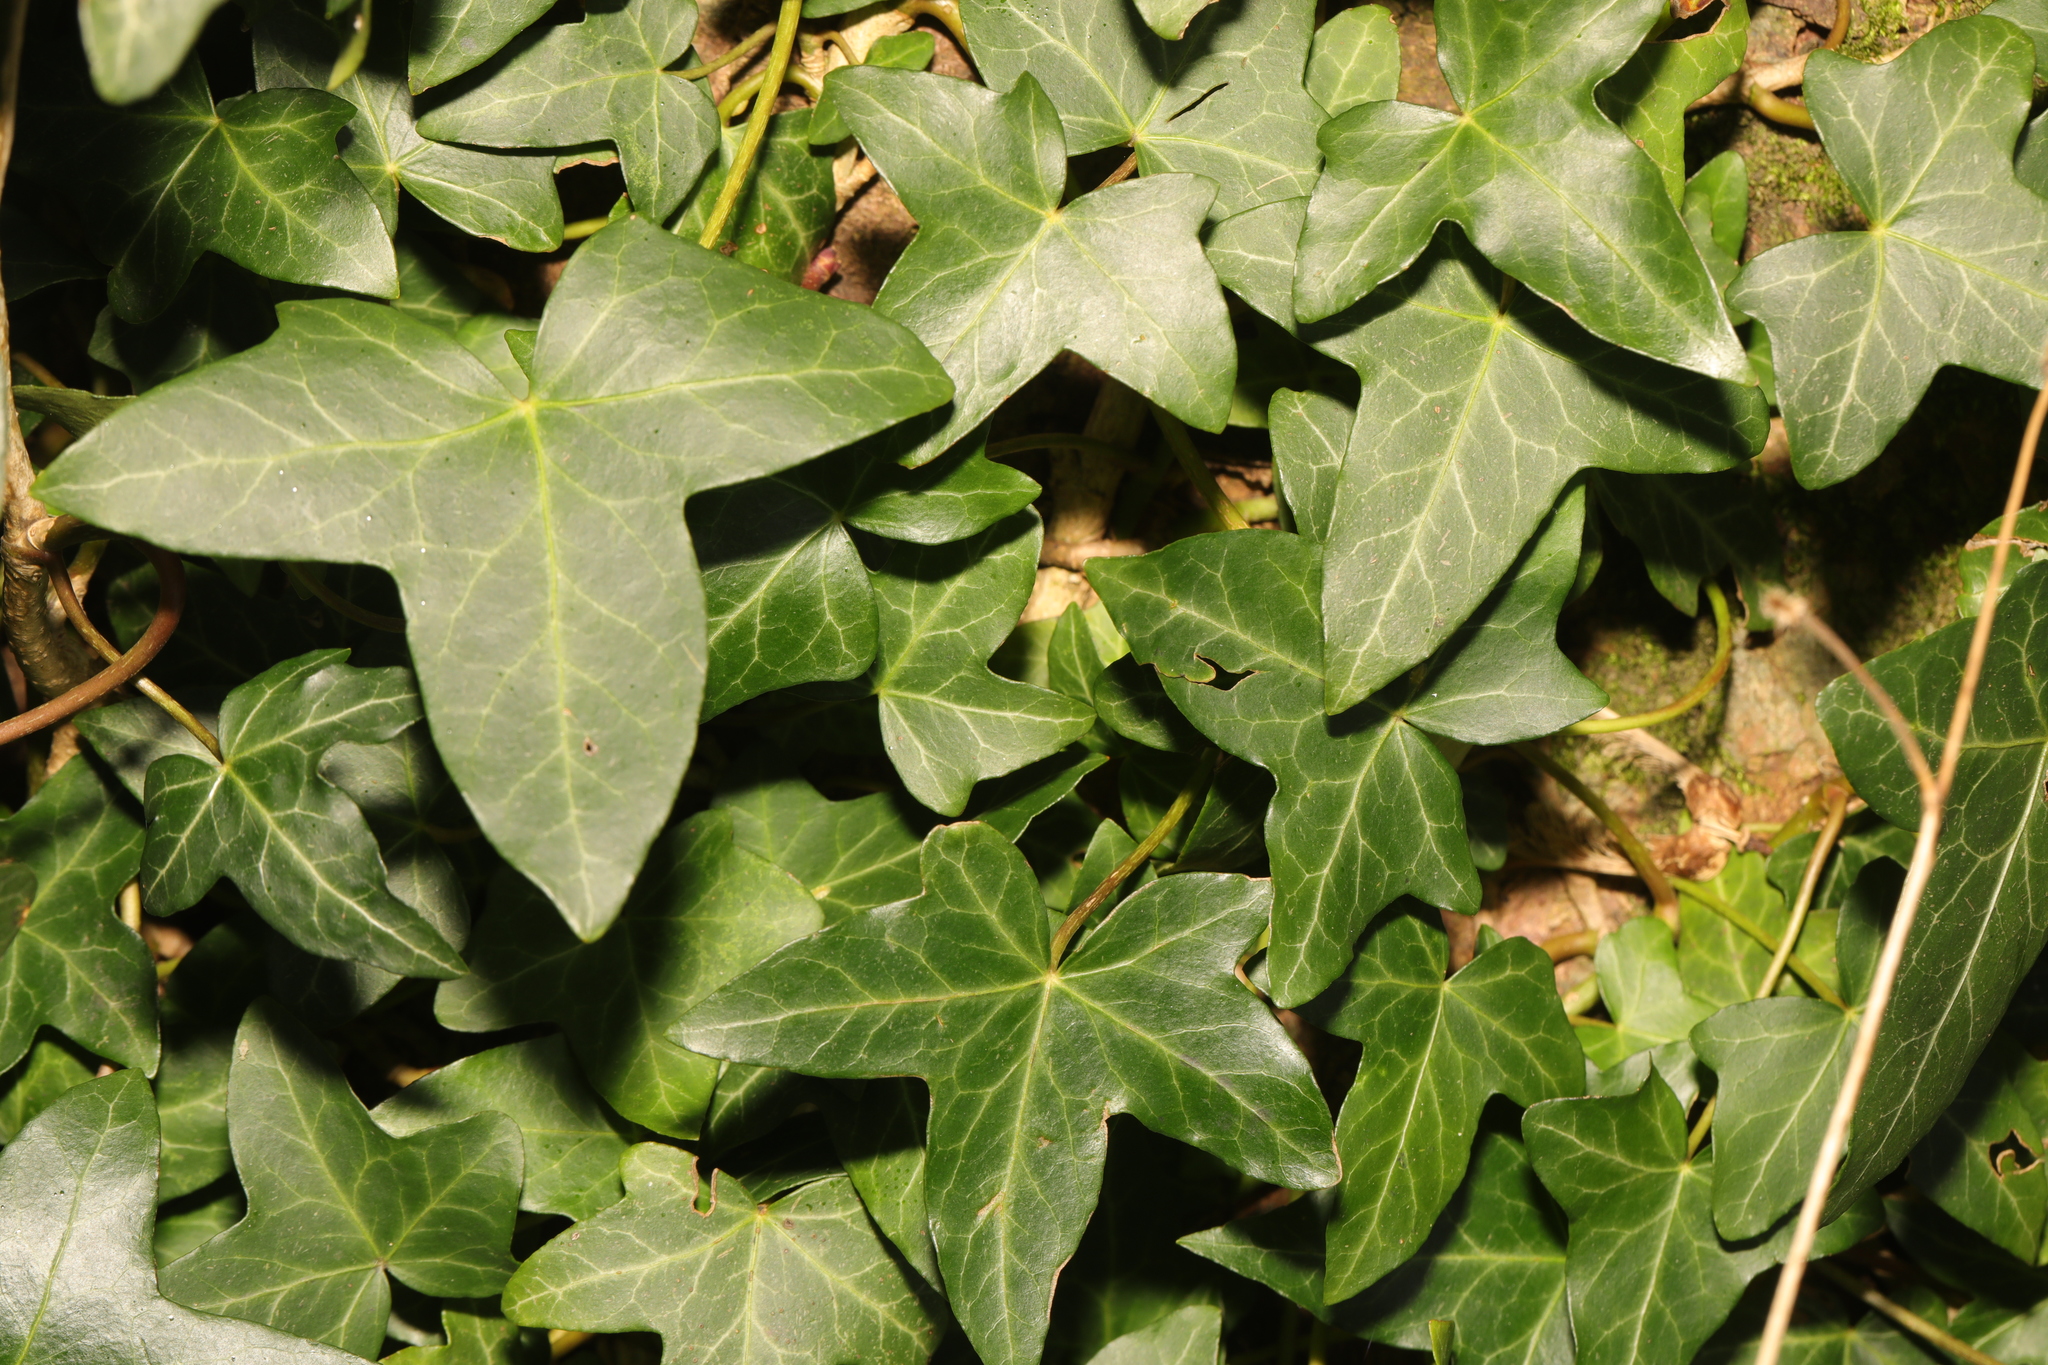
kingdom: Plantae
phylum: Tracheophyta
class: Magnoliopsida
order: Apiales
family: Araliaceae
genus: Hedera
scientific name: Hedera helix
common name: Ivy
